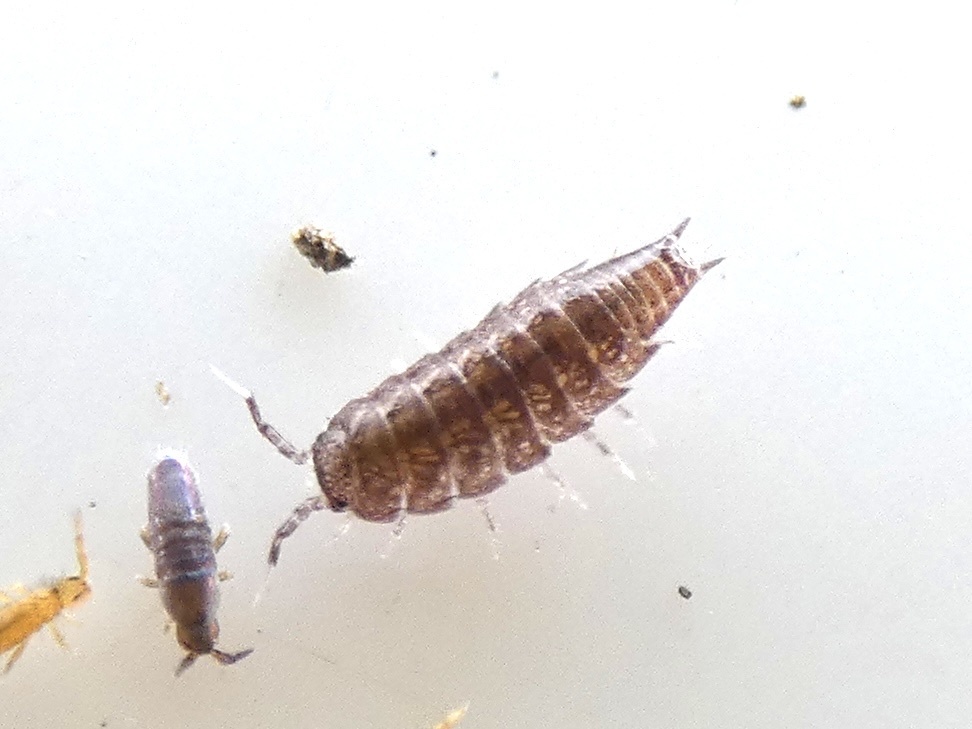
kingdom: Animalia
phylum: Arthropoda
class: Malacostraca
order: Isopoda
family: Trichoniscidae
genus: Trichoniscus
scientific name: Trichoniscus
